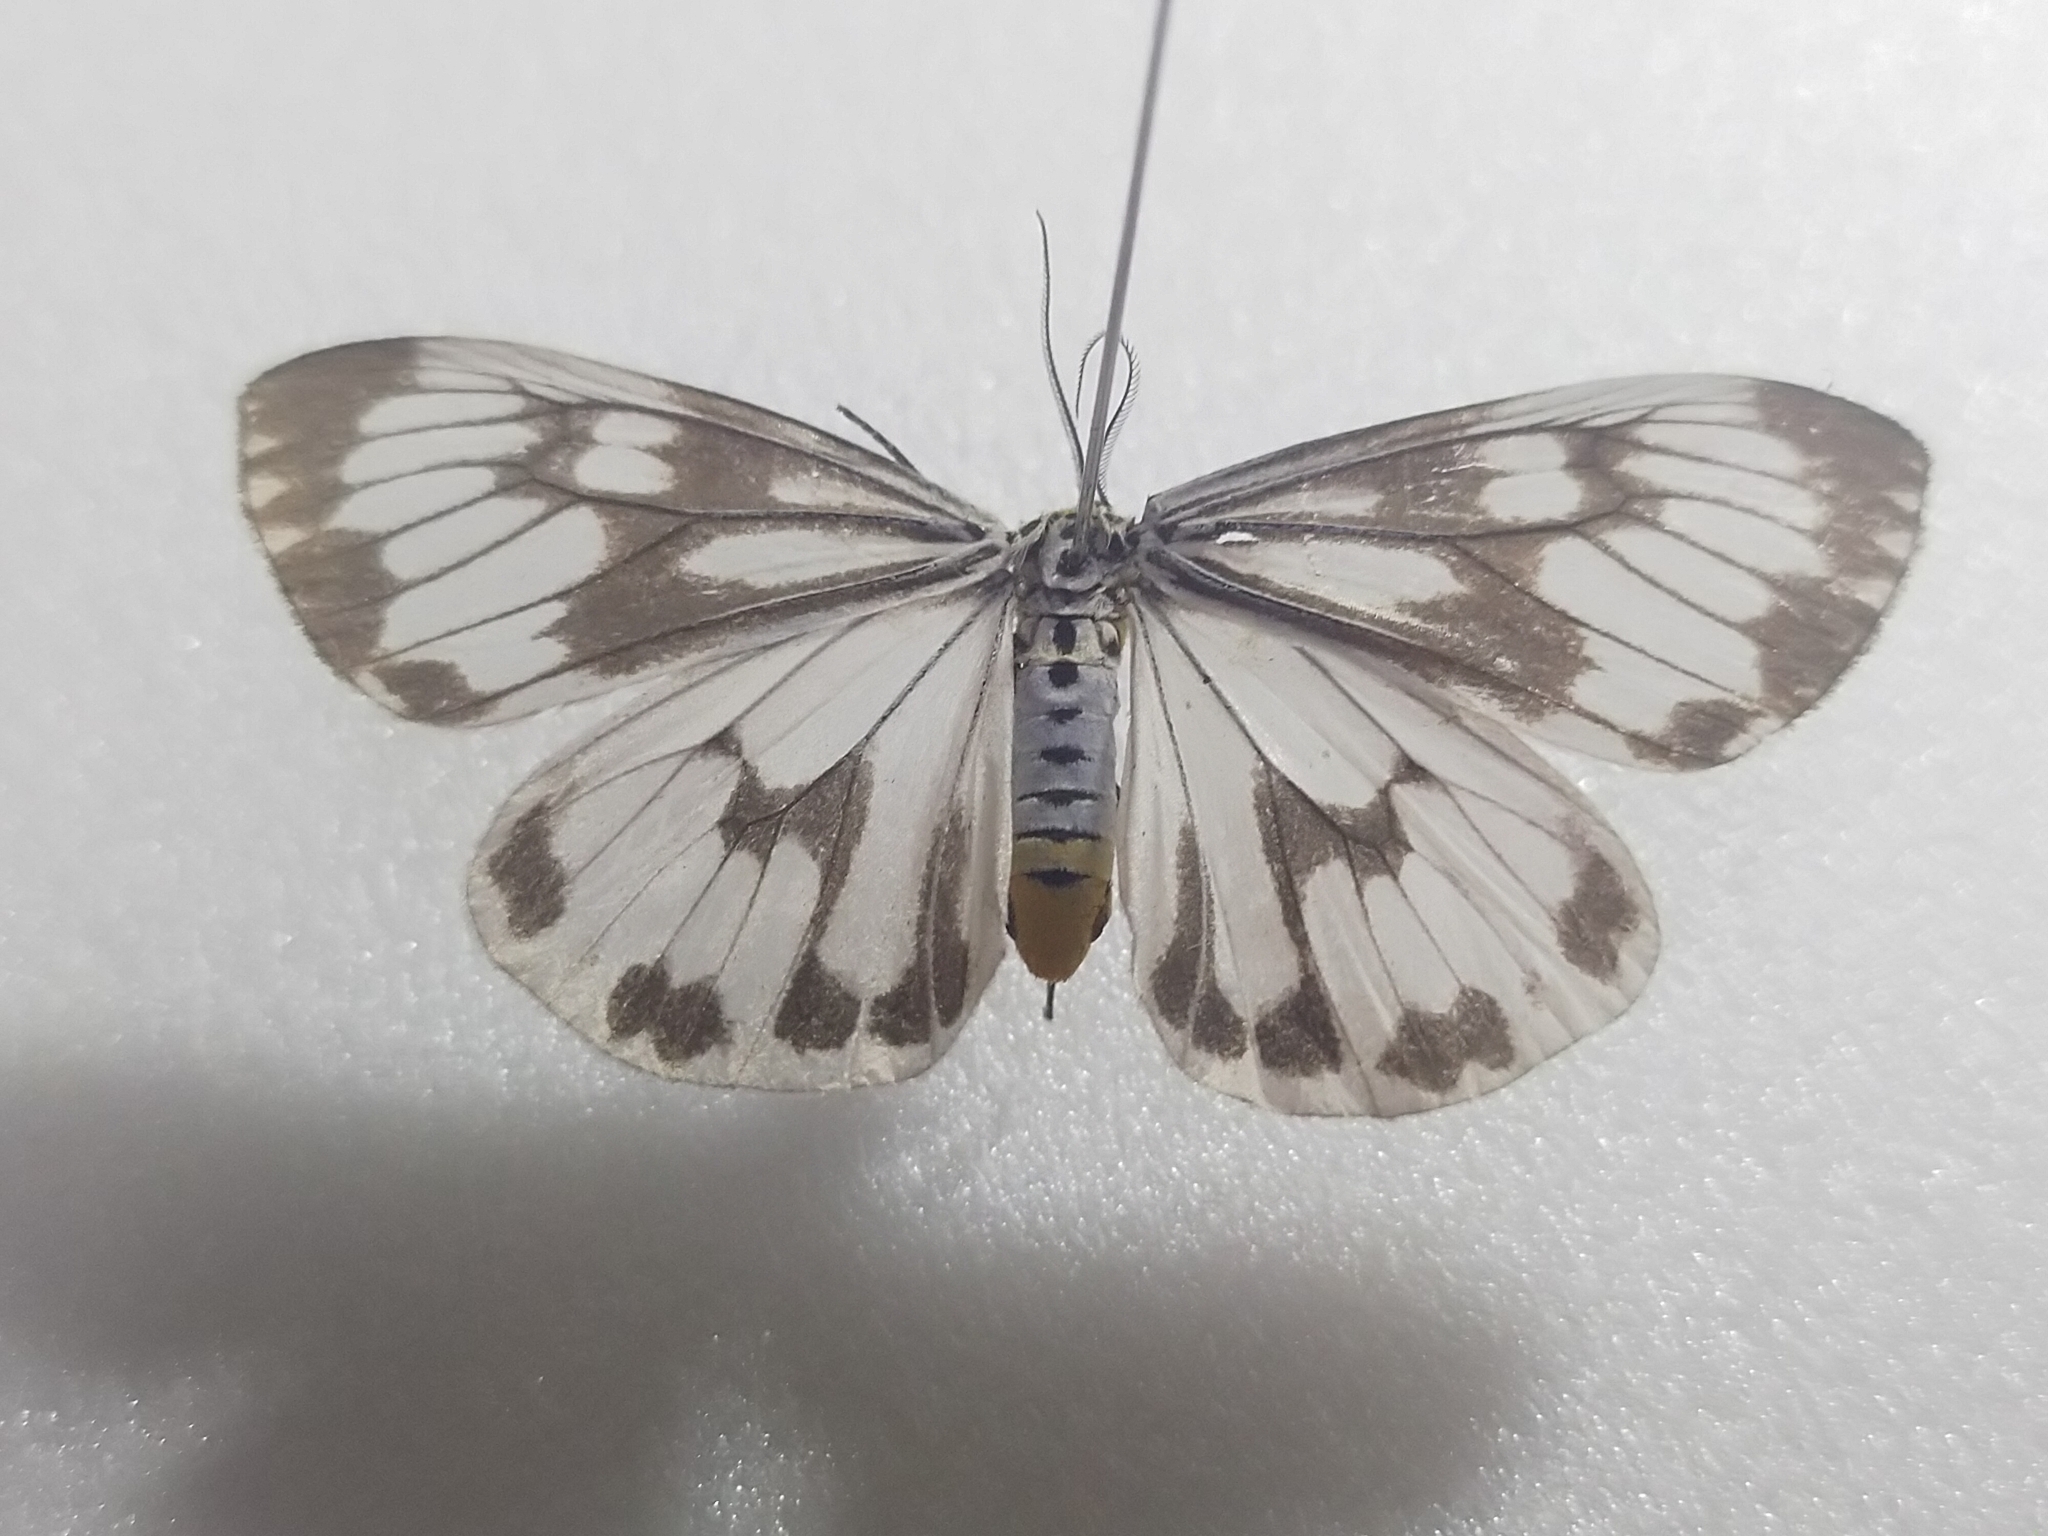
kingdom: Animalia
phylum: Arthropoda
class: Insecta
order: Lepidoptera
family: Erebidae
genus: Nyctemera
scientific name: Nyctemera adversata
